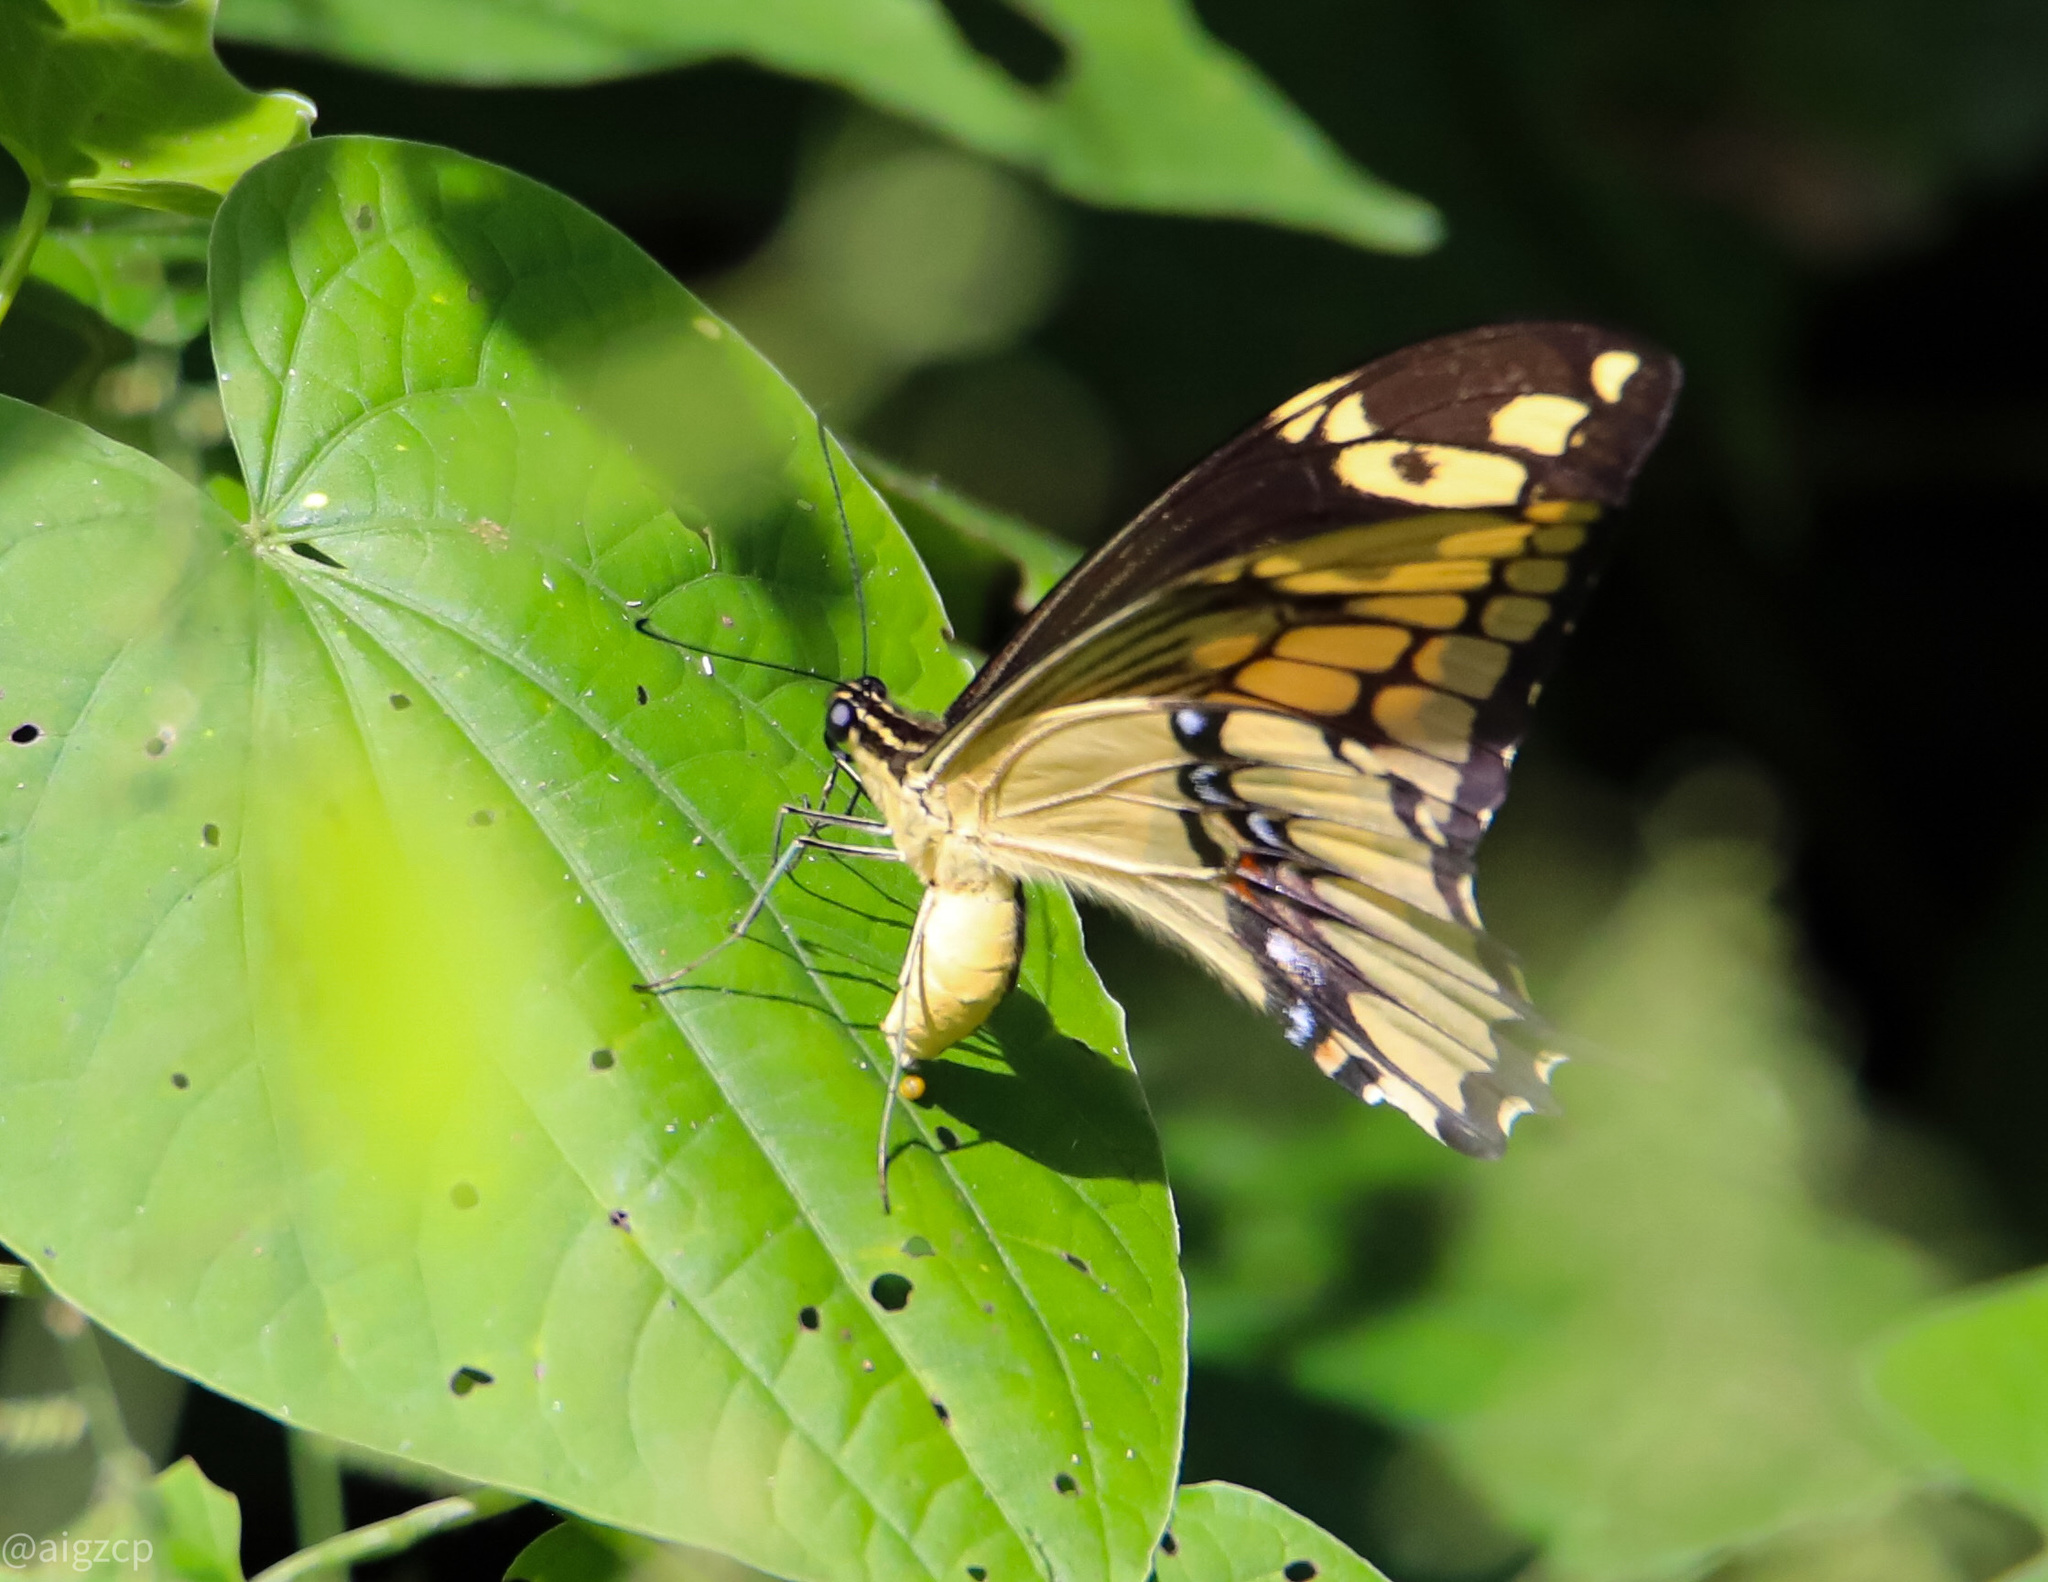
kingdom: Animalia
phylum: Arthropoda
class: Insecta
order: Lepidoptera
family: Papilionidae
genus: Papilio
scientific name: Papilio thoas
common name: King swallowtail
